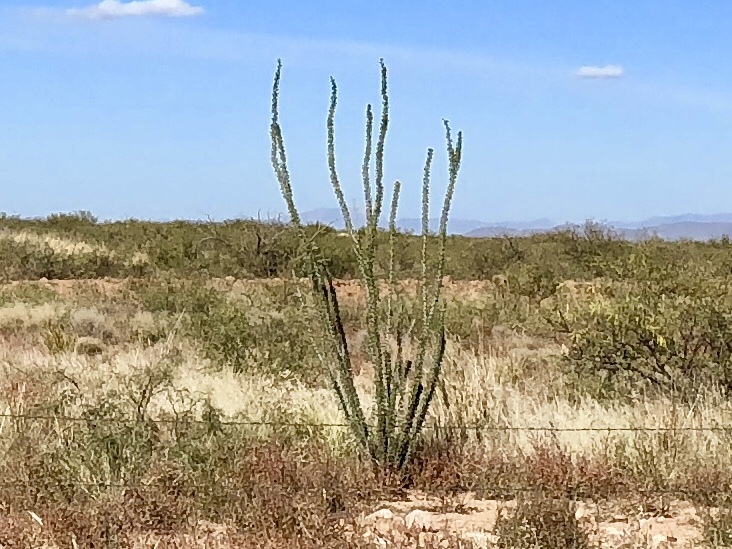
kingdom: Plantae
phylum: Tracheophyta
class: Magnoliopsida
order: Ericales
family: Fouquieriaceae
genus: Fouquieria
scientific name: Fouquieria splendens
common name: Vine-cactus
